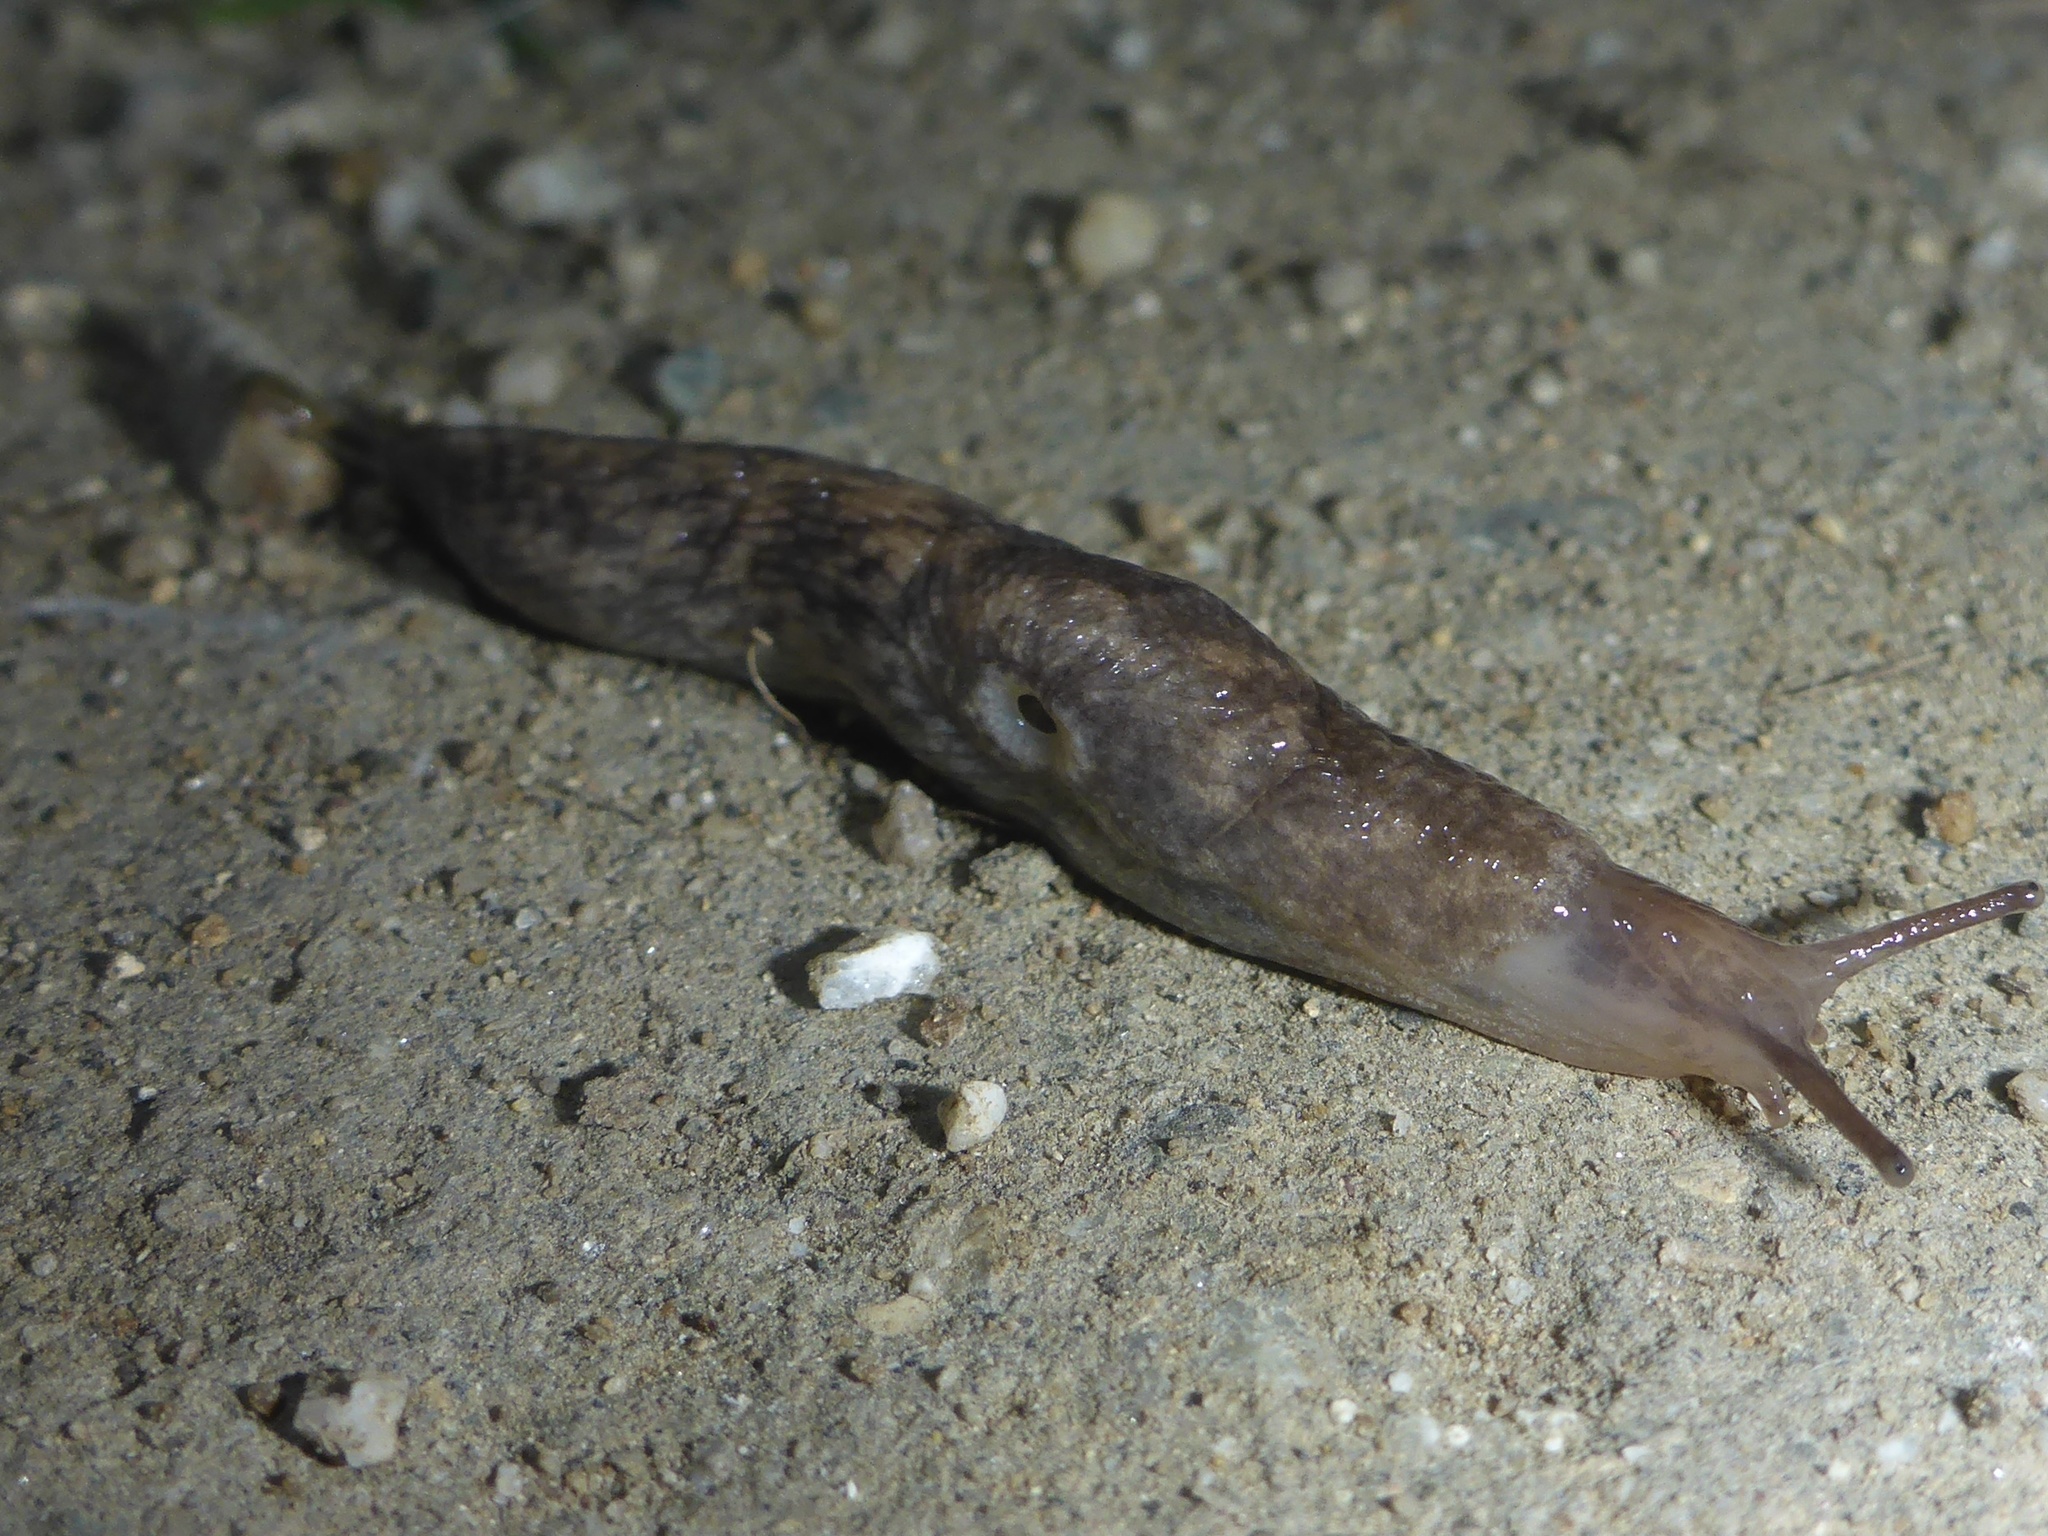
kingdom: Animalia
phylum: Mollusca
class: Gastropoda
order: Stylommatophora
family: Agriolimacidae
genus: Deroceras
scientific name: Deroceras reticulatum
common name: Gray field slug
